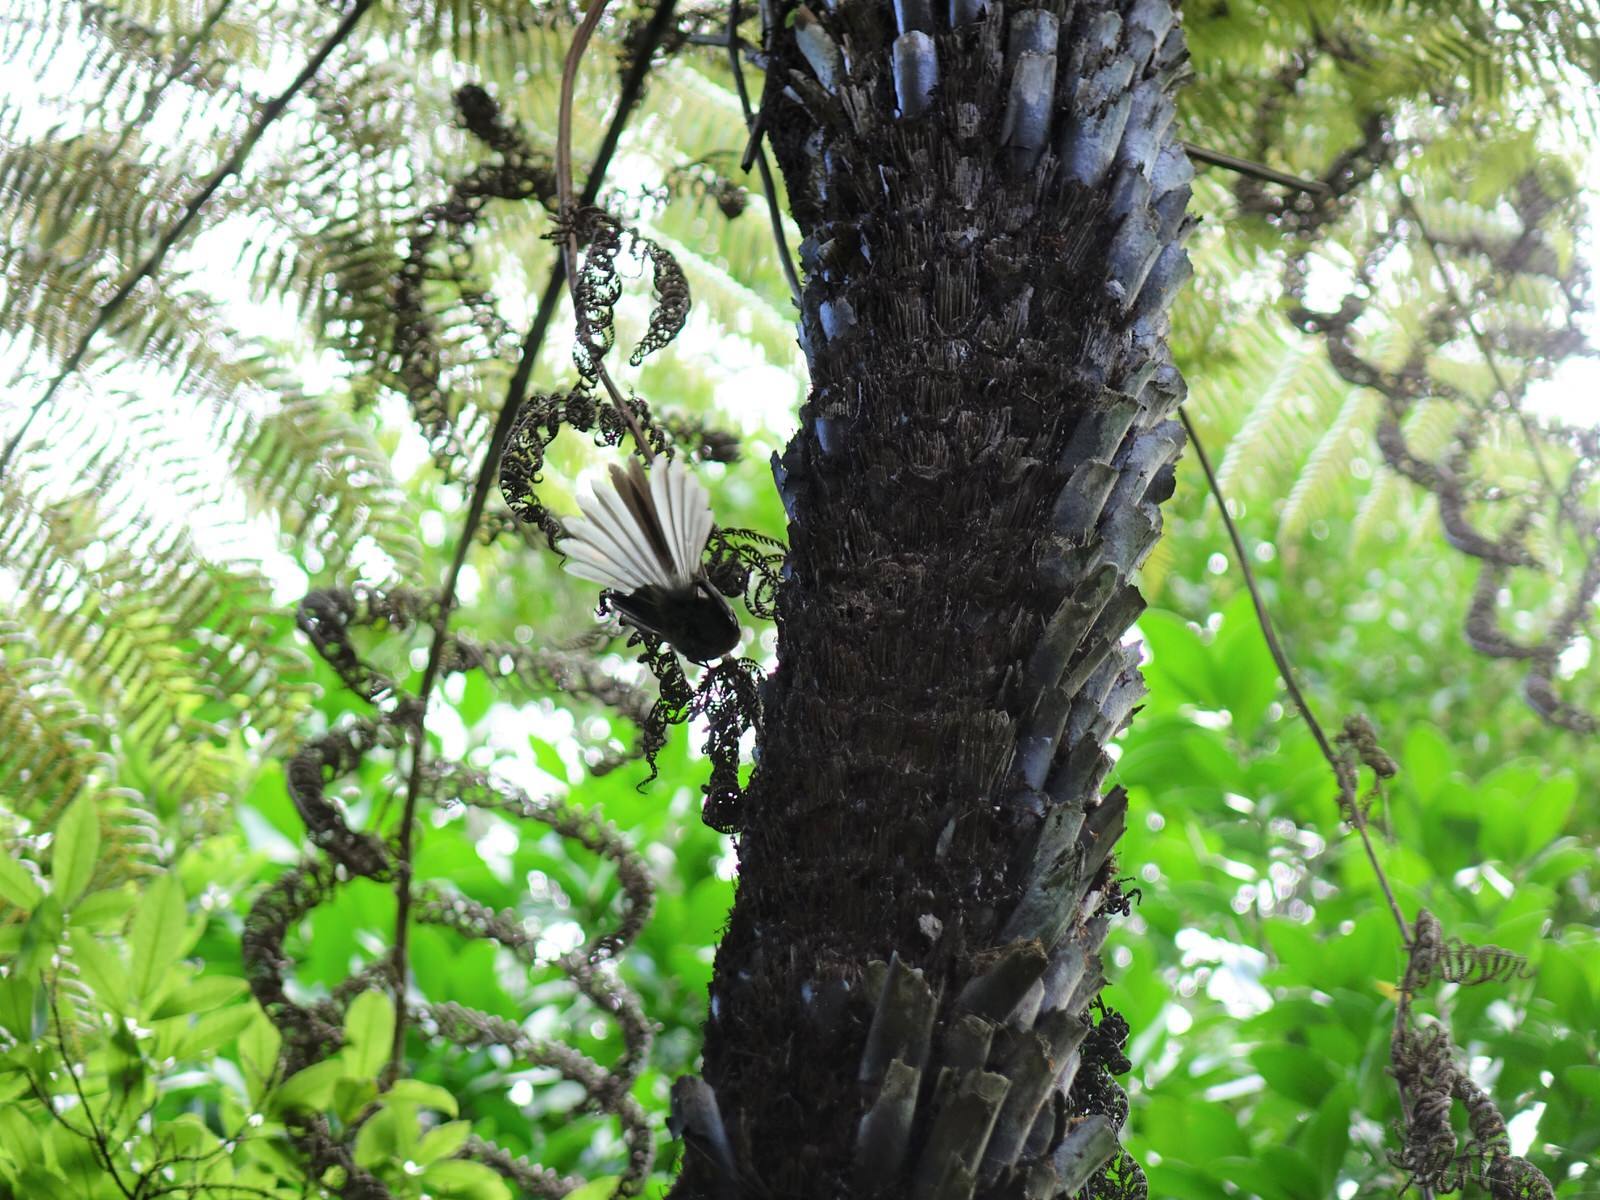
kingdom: Animalia
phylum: Chordata
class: Aves
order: Passeriformes
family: Rhipiduridae
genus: Rhipidura
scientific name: Rhipidura fuliginosa
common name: New zealand fantail
